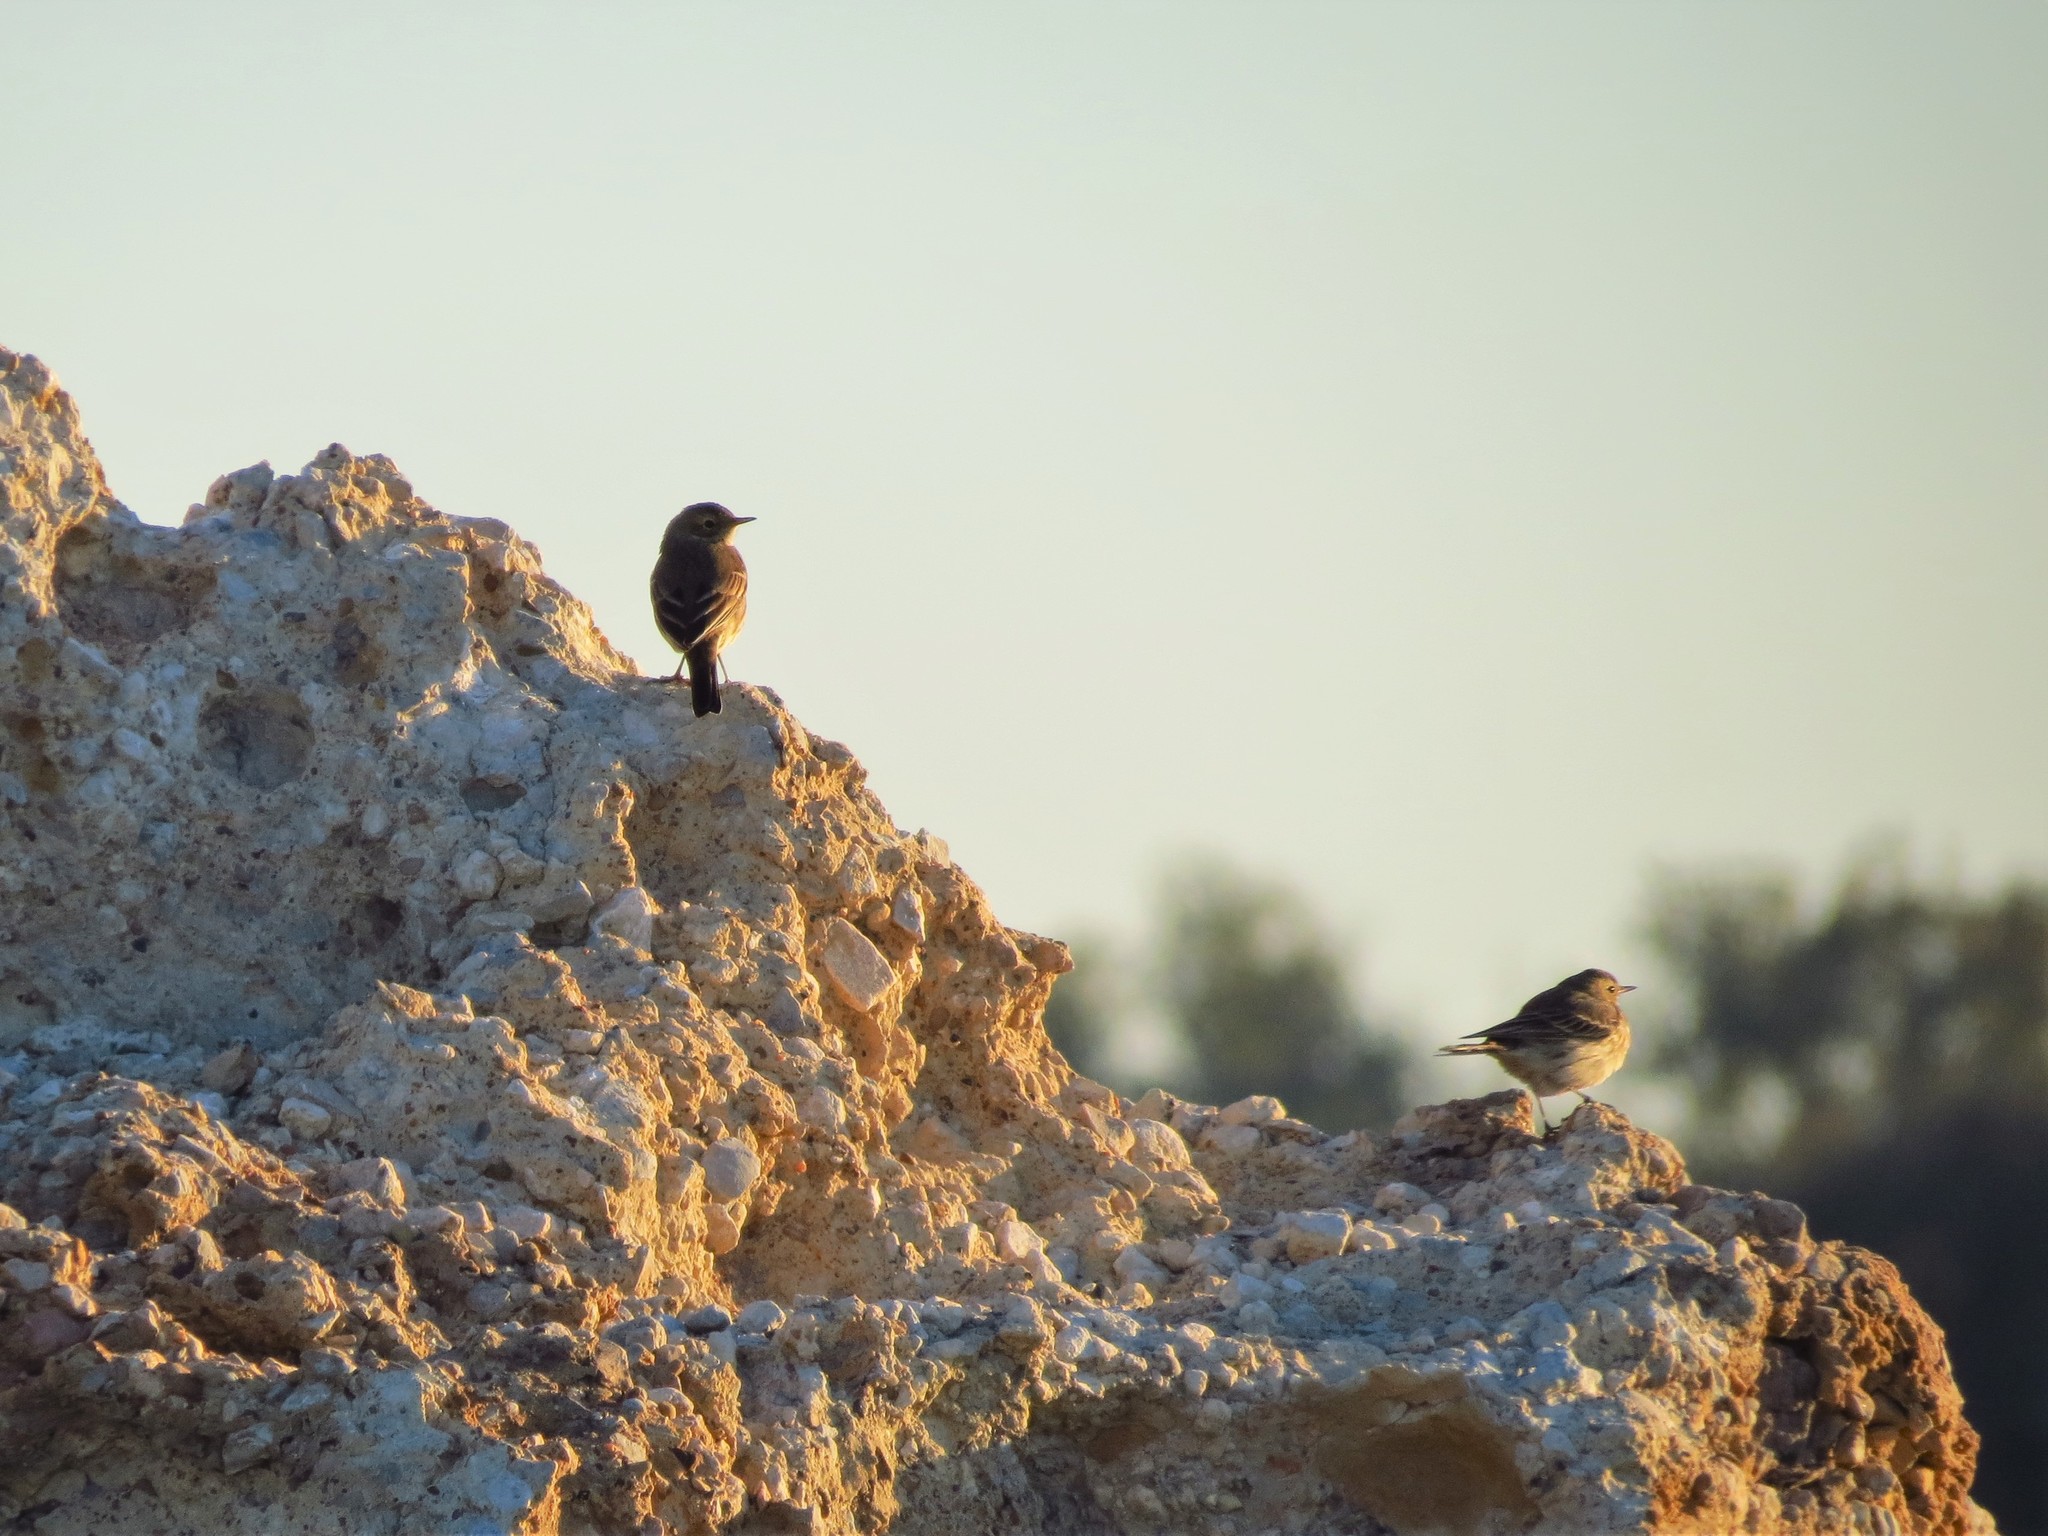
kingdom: Animalia
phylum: Chordata
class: Aves
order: Passeriformes
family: Motacillidae
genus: Anthus
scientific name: Anthus rubescens
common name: Buff-bellied pipit
